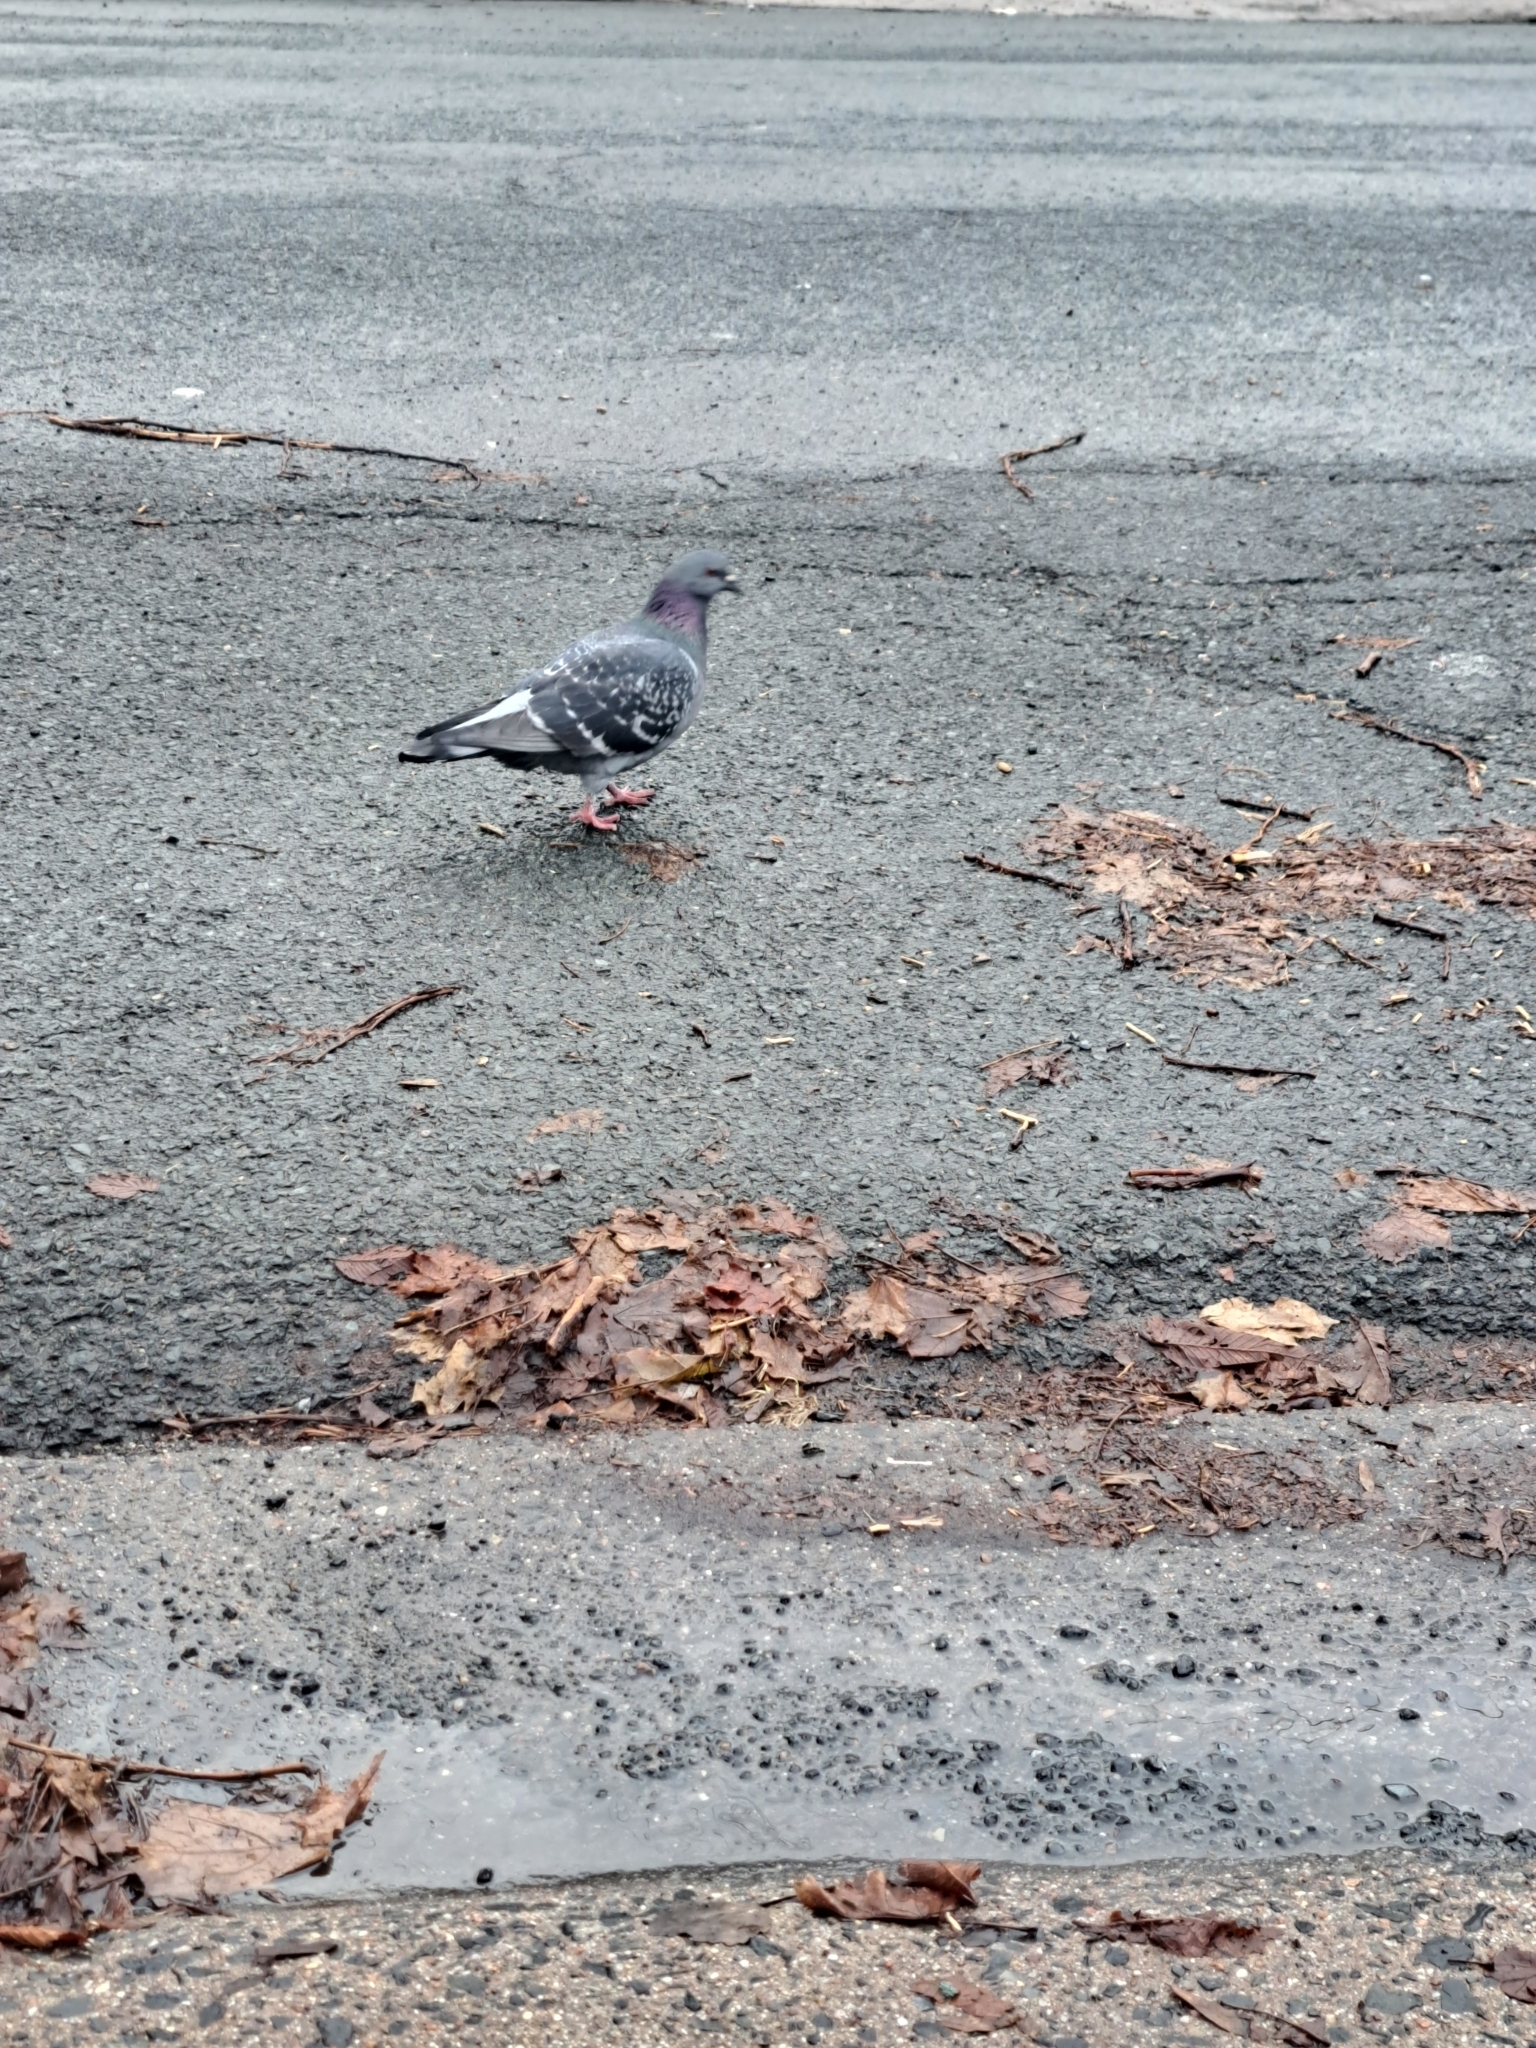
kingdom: Animalia
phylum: Chordata
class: Aves
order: Columbiformes
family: Columbidae
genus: Columba
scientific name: Columba livia
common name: Rock pigeon
